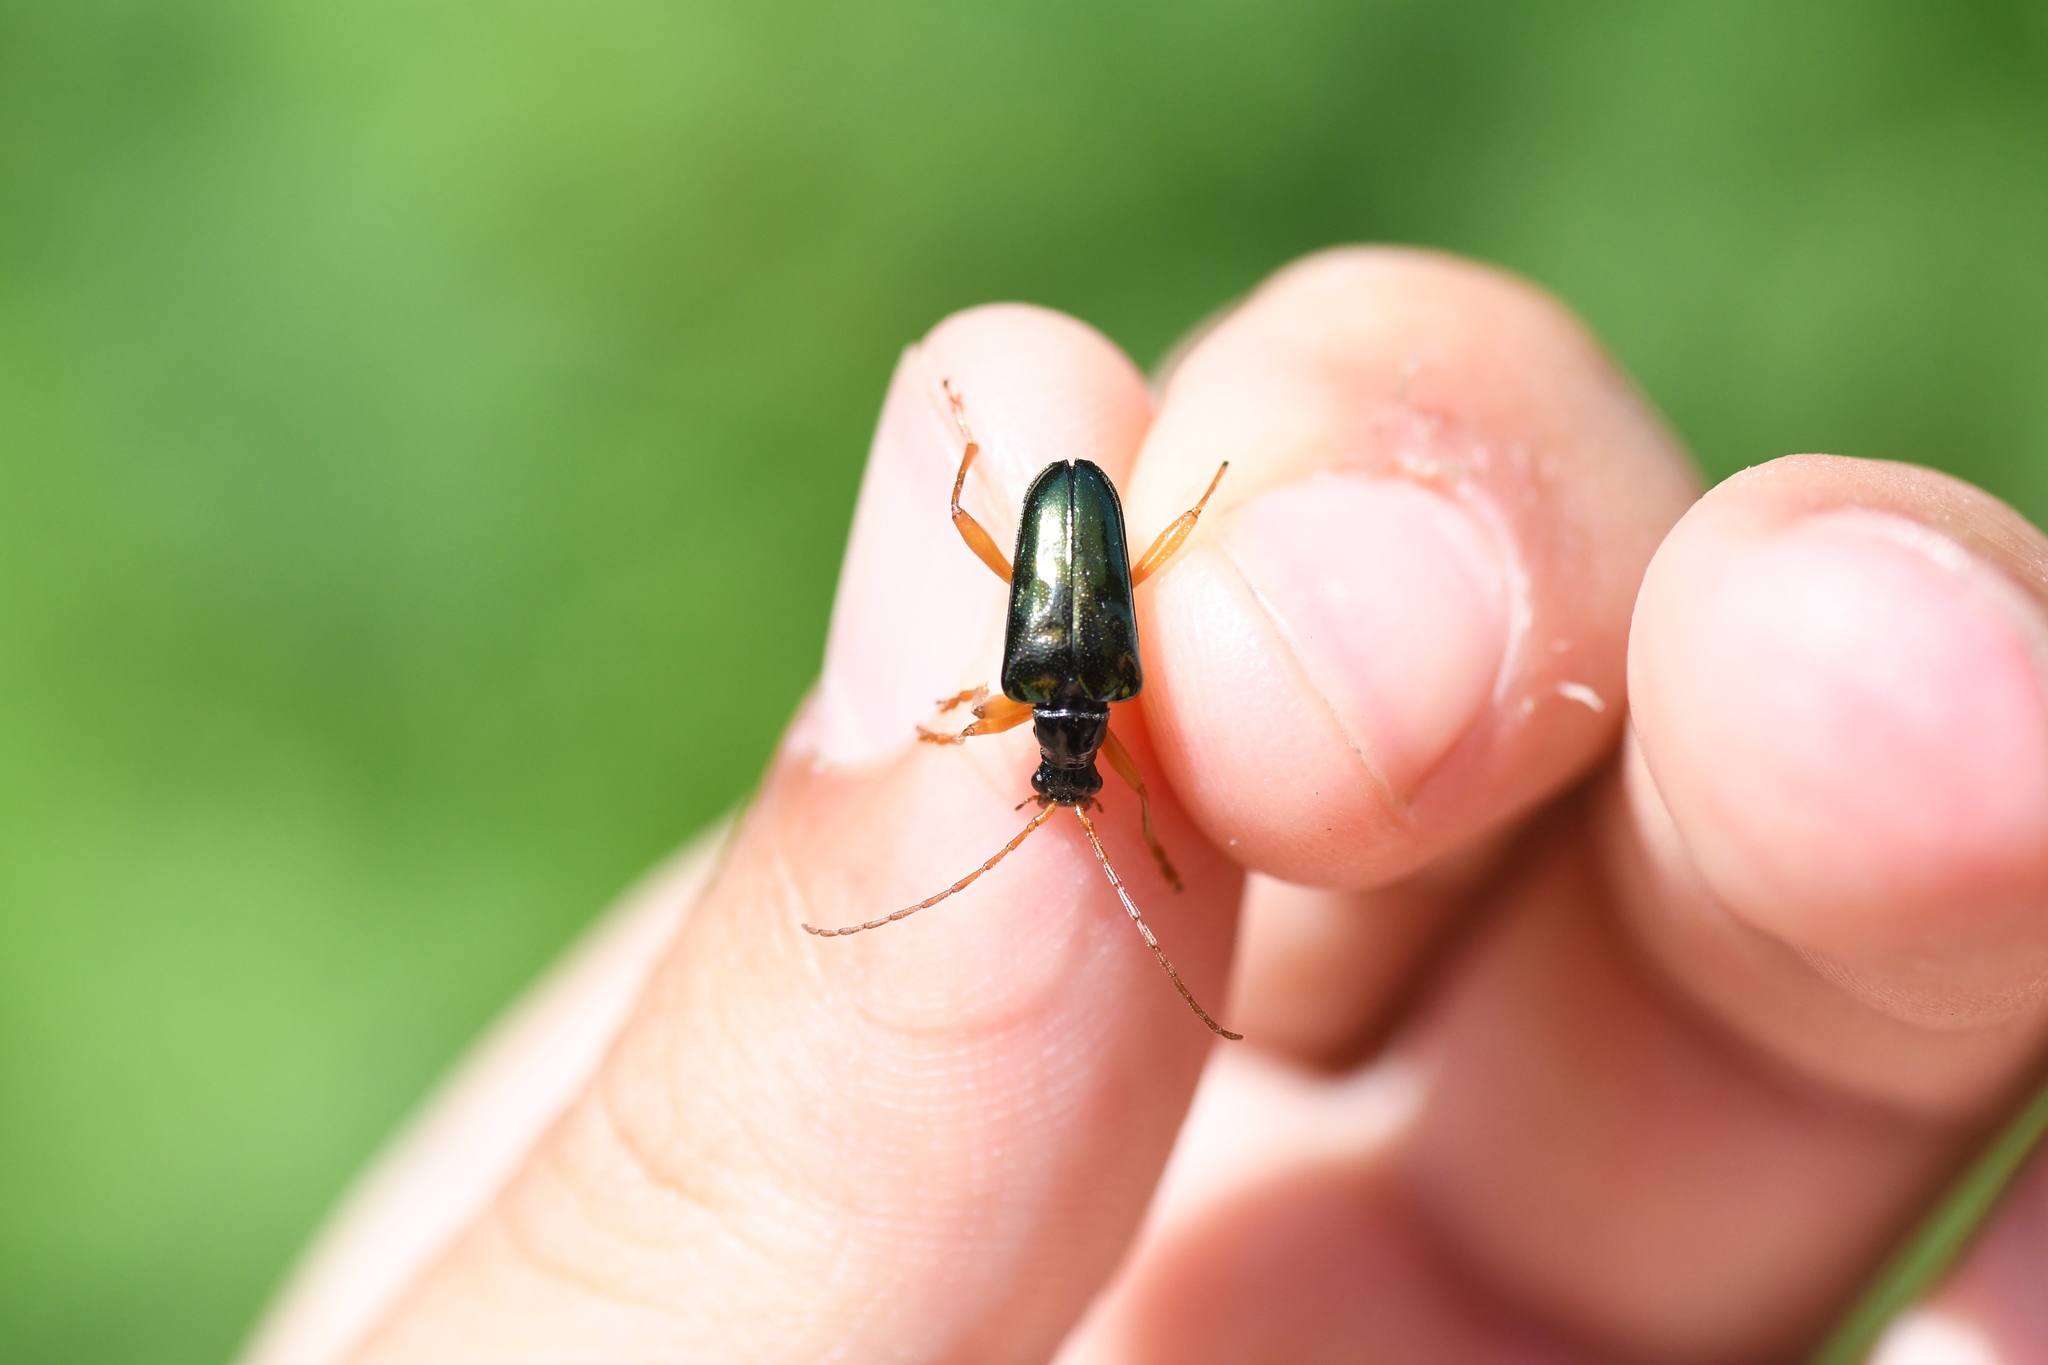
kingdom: Animalia
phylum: Arthropoda
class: Insecta
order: Coleoptera
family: Cerambycidae
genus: Gaurotes
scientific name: Gaurotes cyanipennis
